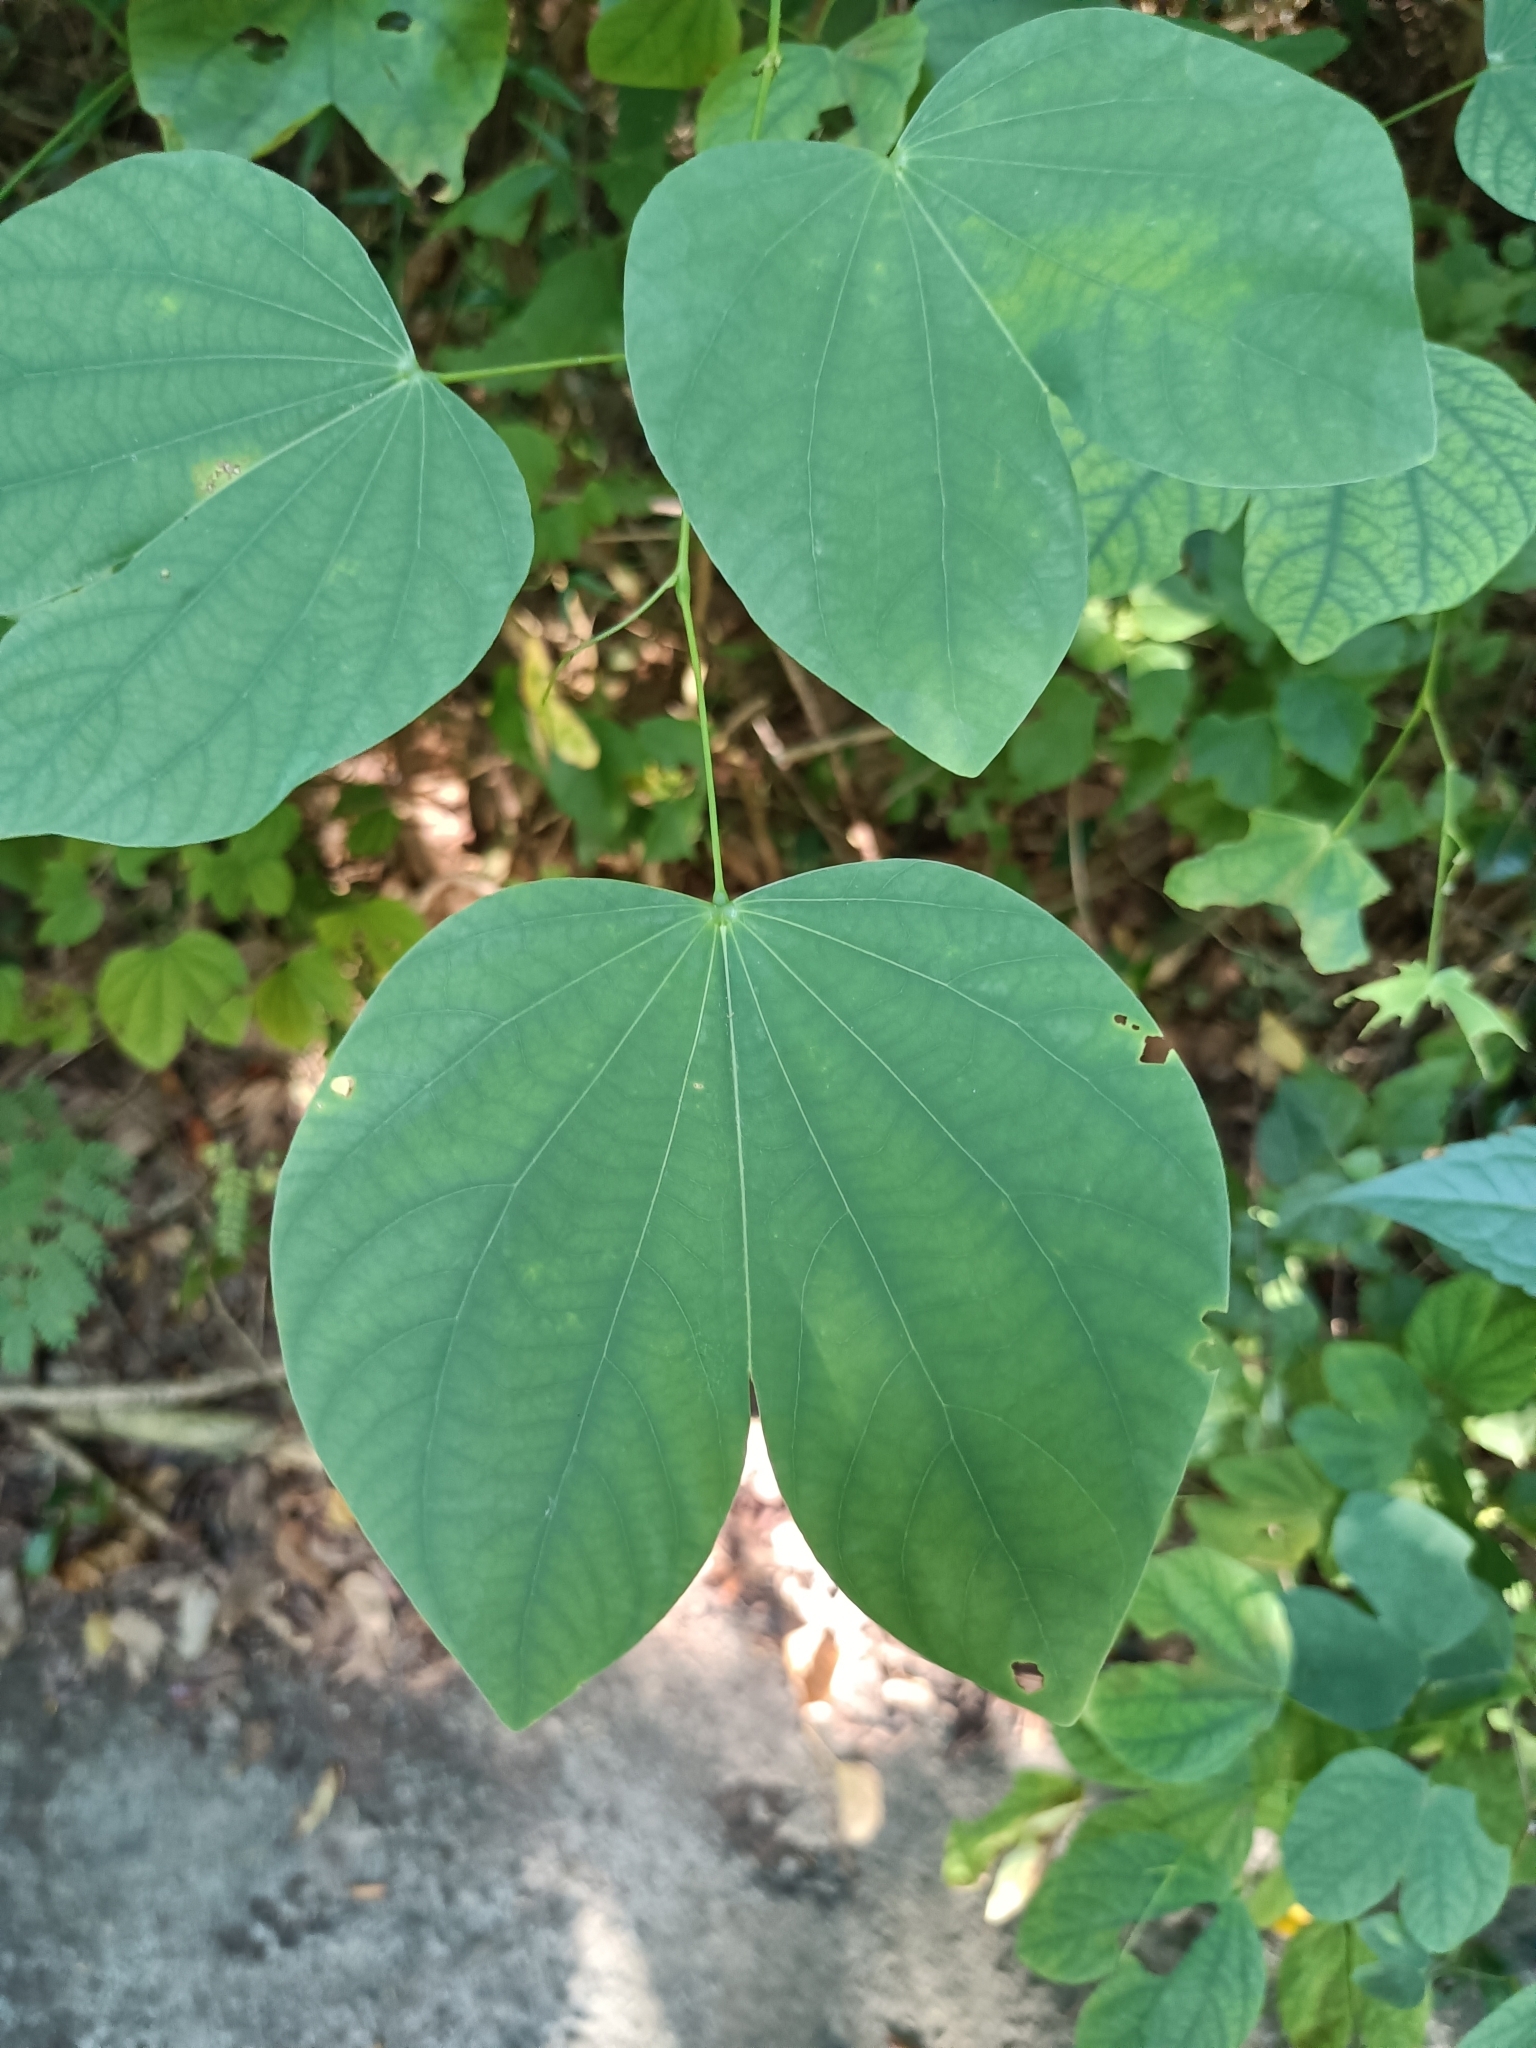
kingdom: Plantae
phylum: Tracheophyta
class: Magnoliopsida
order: Fabales
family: Fabaceae
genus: Bauhinia
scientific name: Bauhinia purpurea
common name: Butterfly-tree
